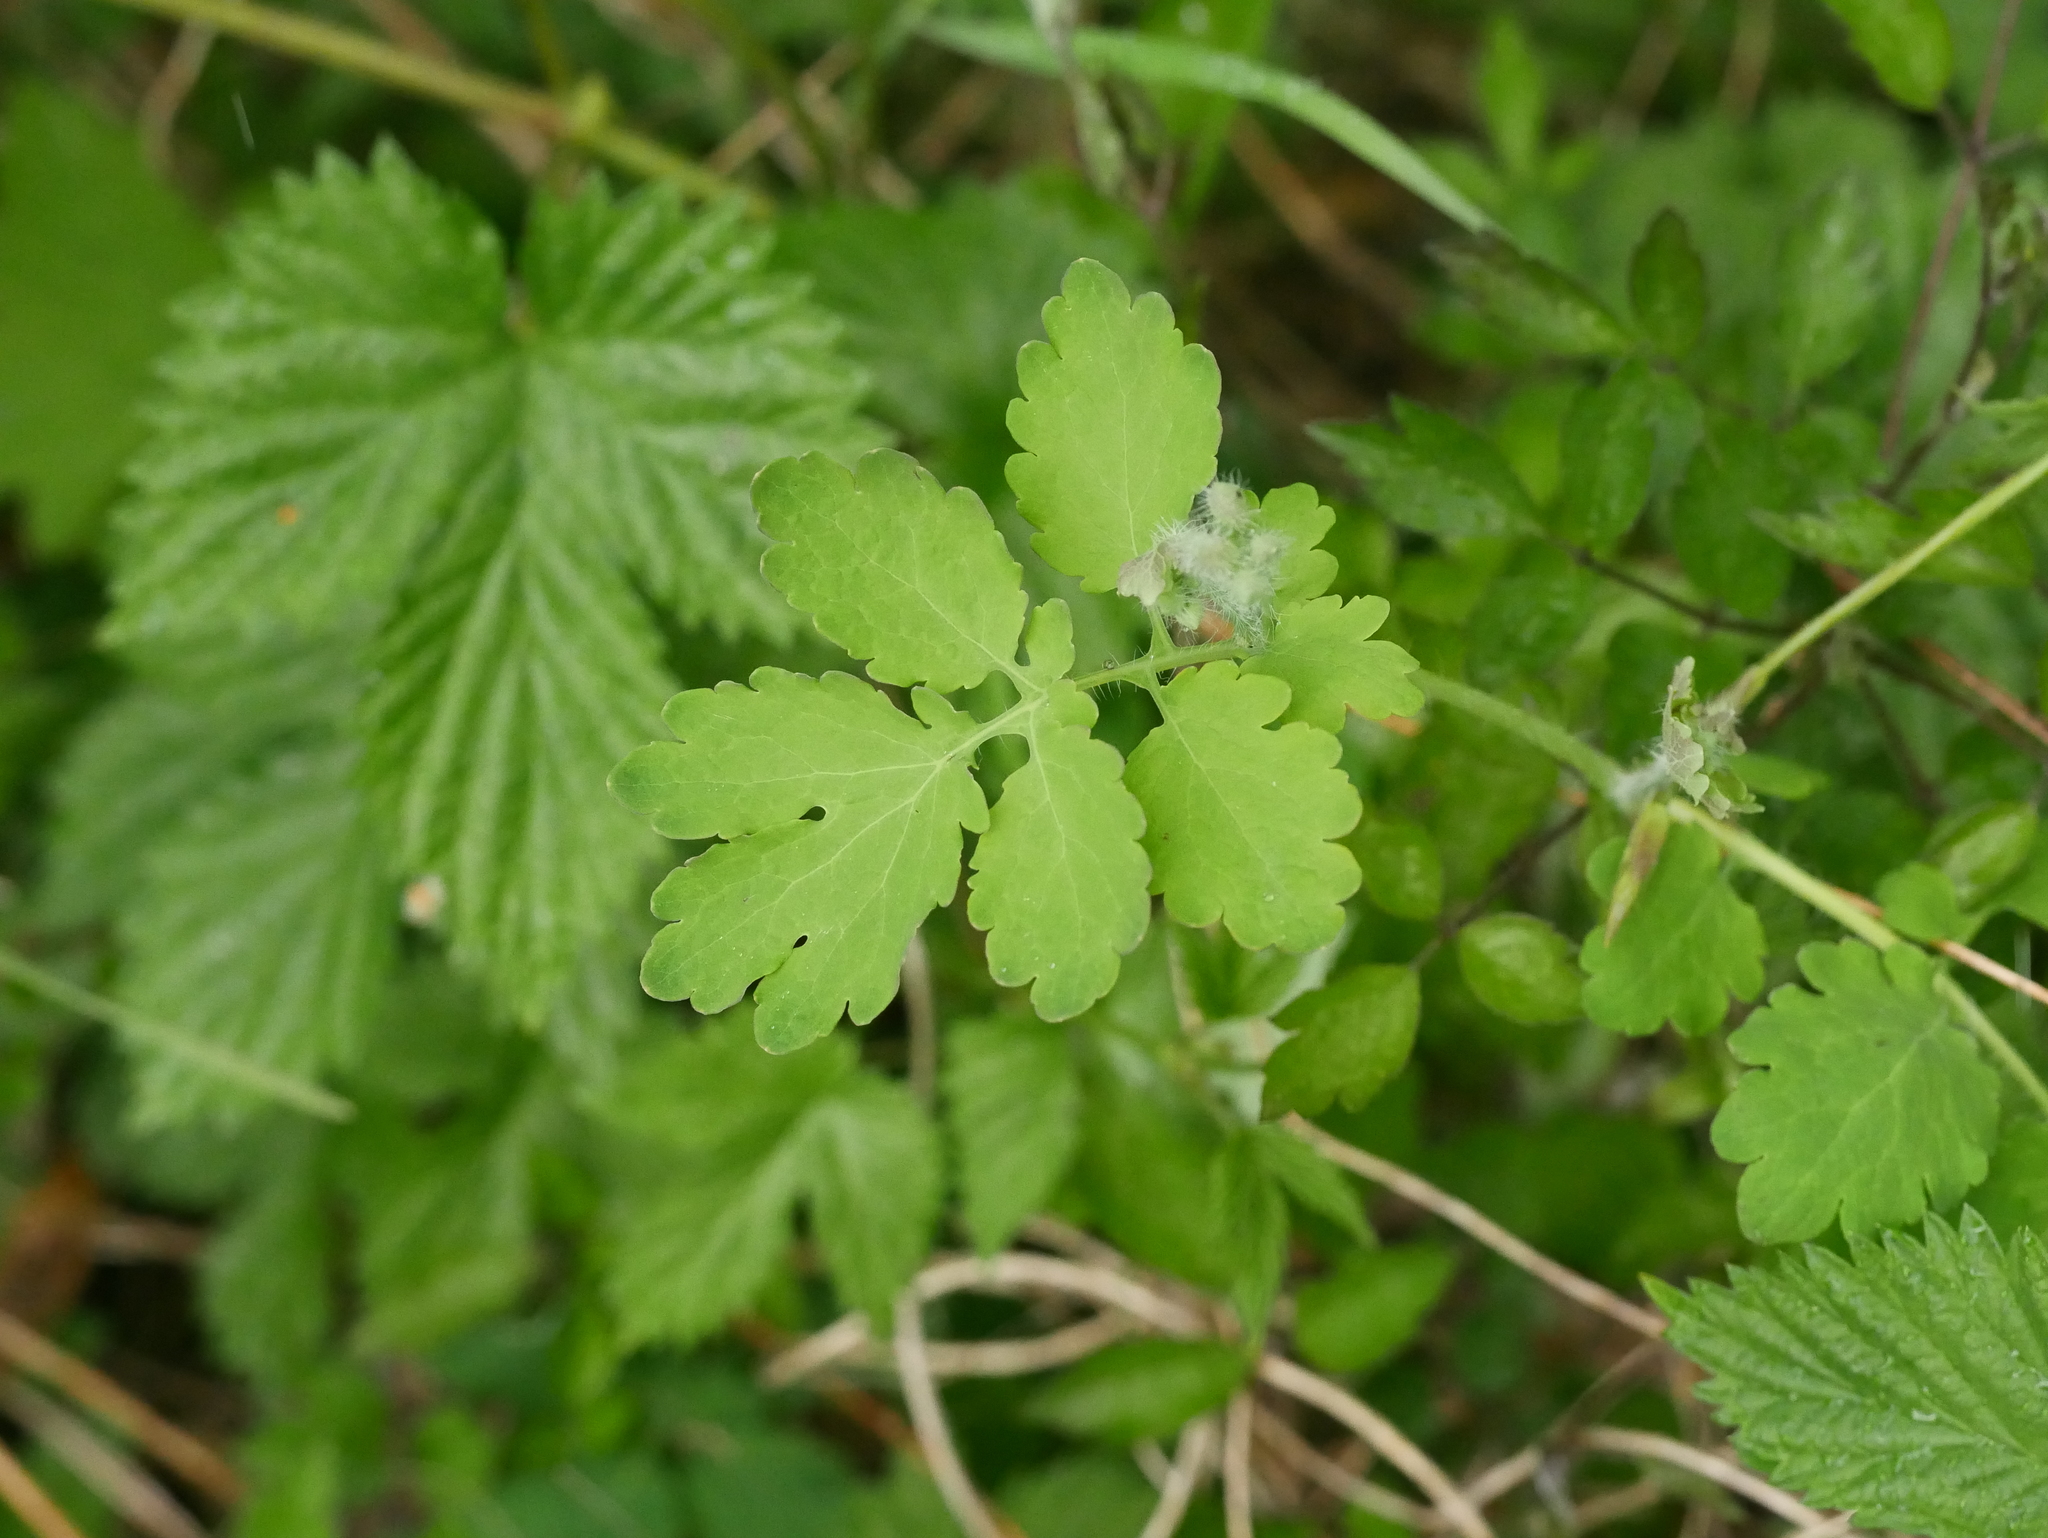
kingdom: Plantae
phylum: Tracheophyta
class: Magnoliopsida
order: Ranunculales
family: Papaveraceae
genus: Chelidonium
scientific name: Chelidonium majus
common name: Greater celandine
